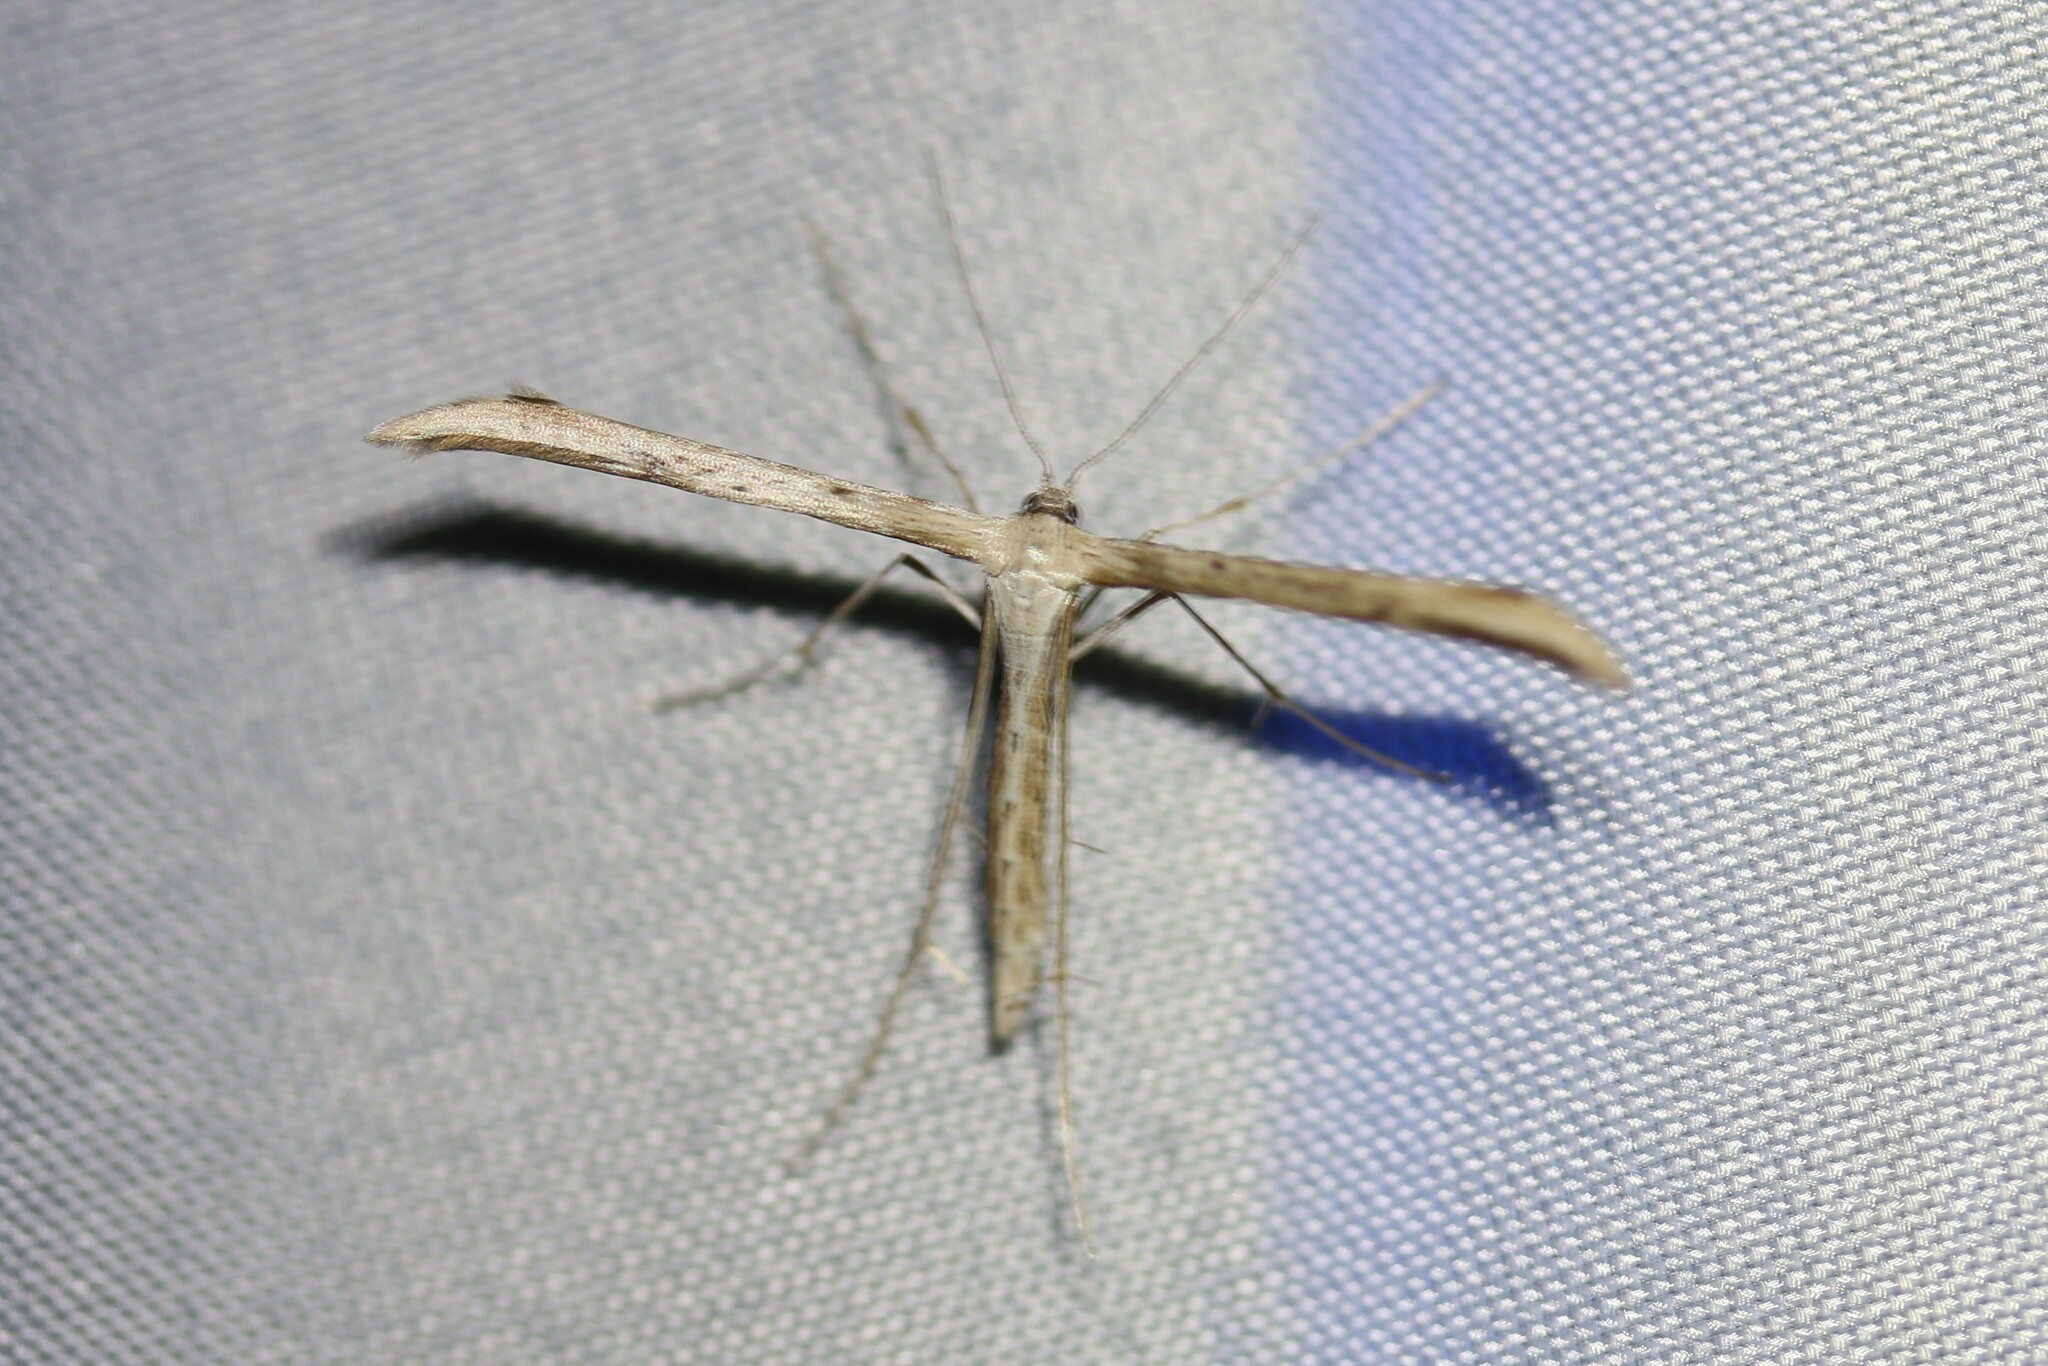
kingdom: Animalia
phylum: Arthropoda
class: Insecta
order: Lepidoptera
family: Pterophoridae
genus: Emmelina
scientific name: Emmelina monodactyla
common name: Common plume
